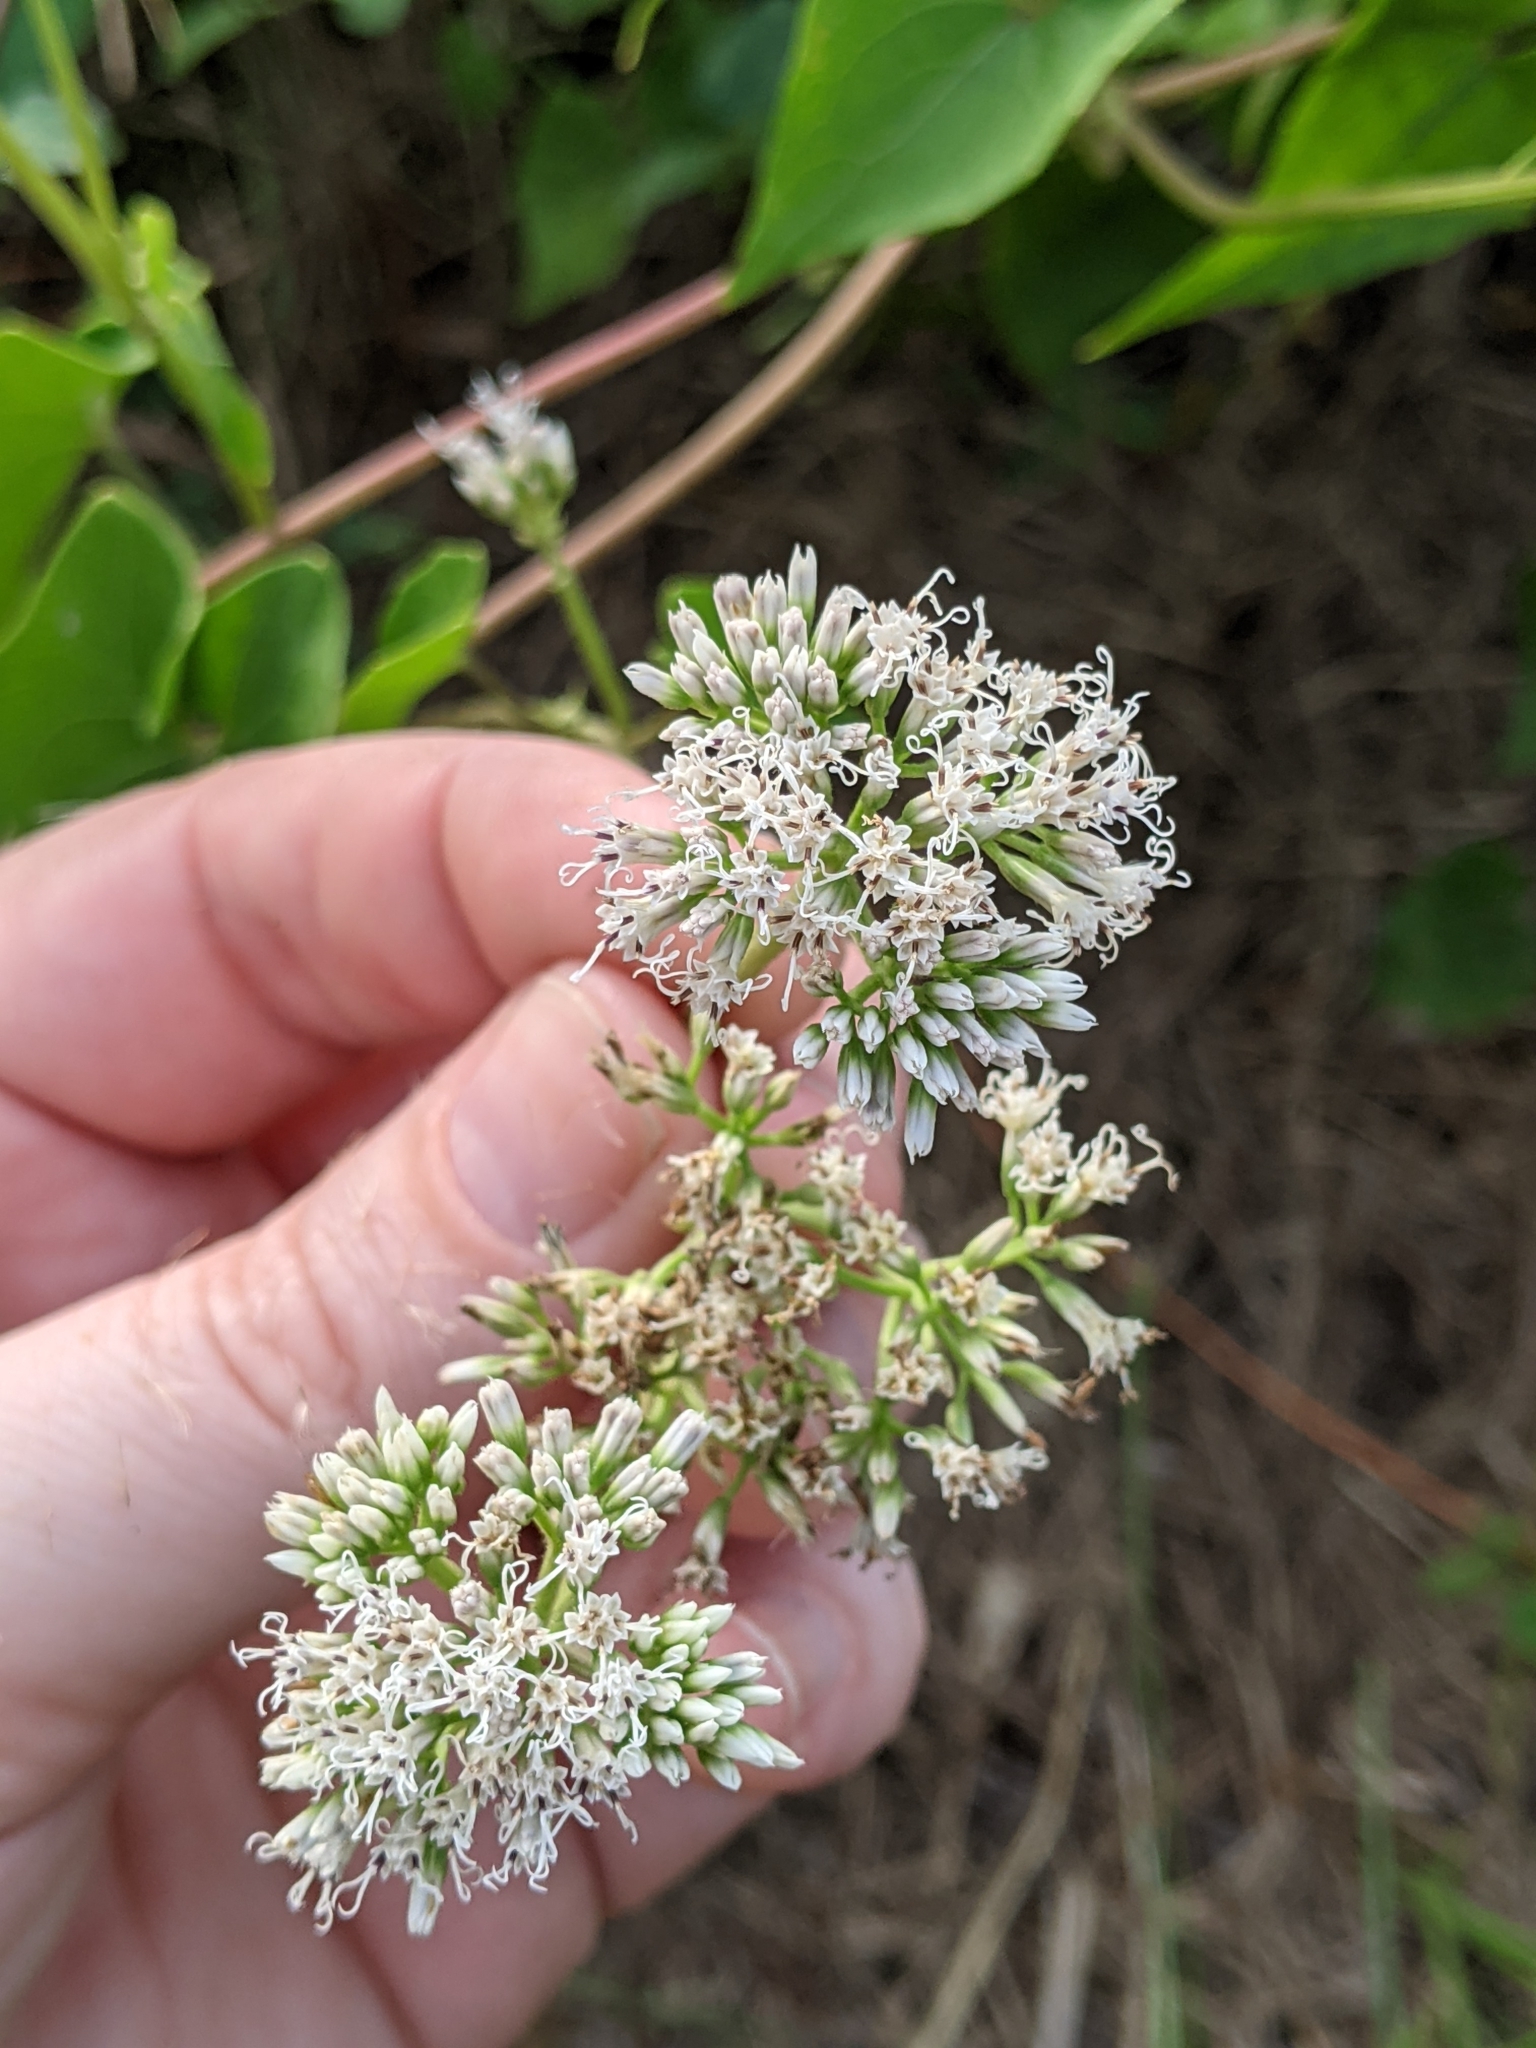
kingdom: Plantae
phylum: Tracheophyta
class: Magnoliopsida
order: Asterales
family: Asteraceae
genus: Mikania
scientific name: Mikania scandens
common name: Climbing hempvine
